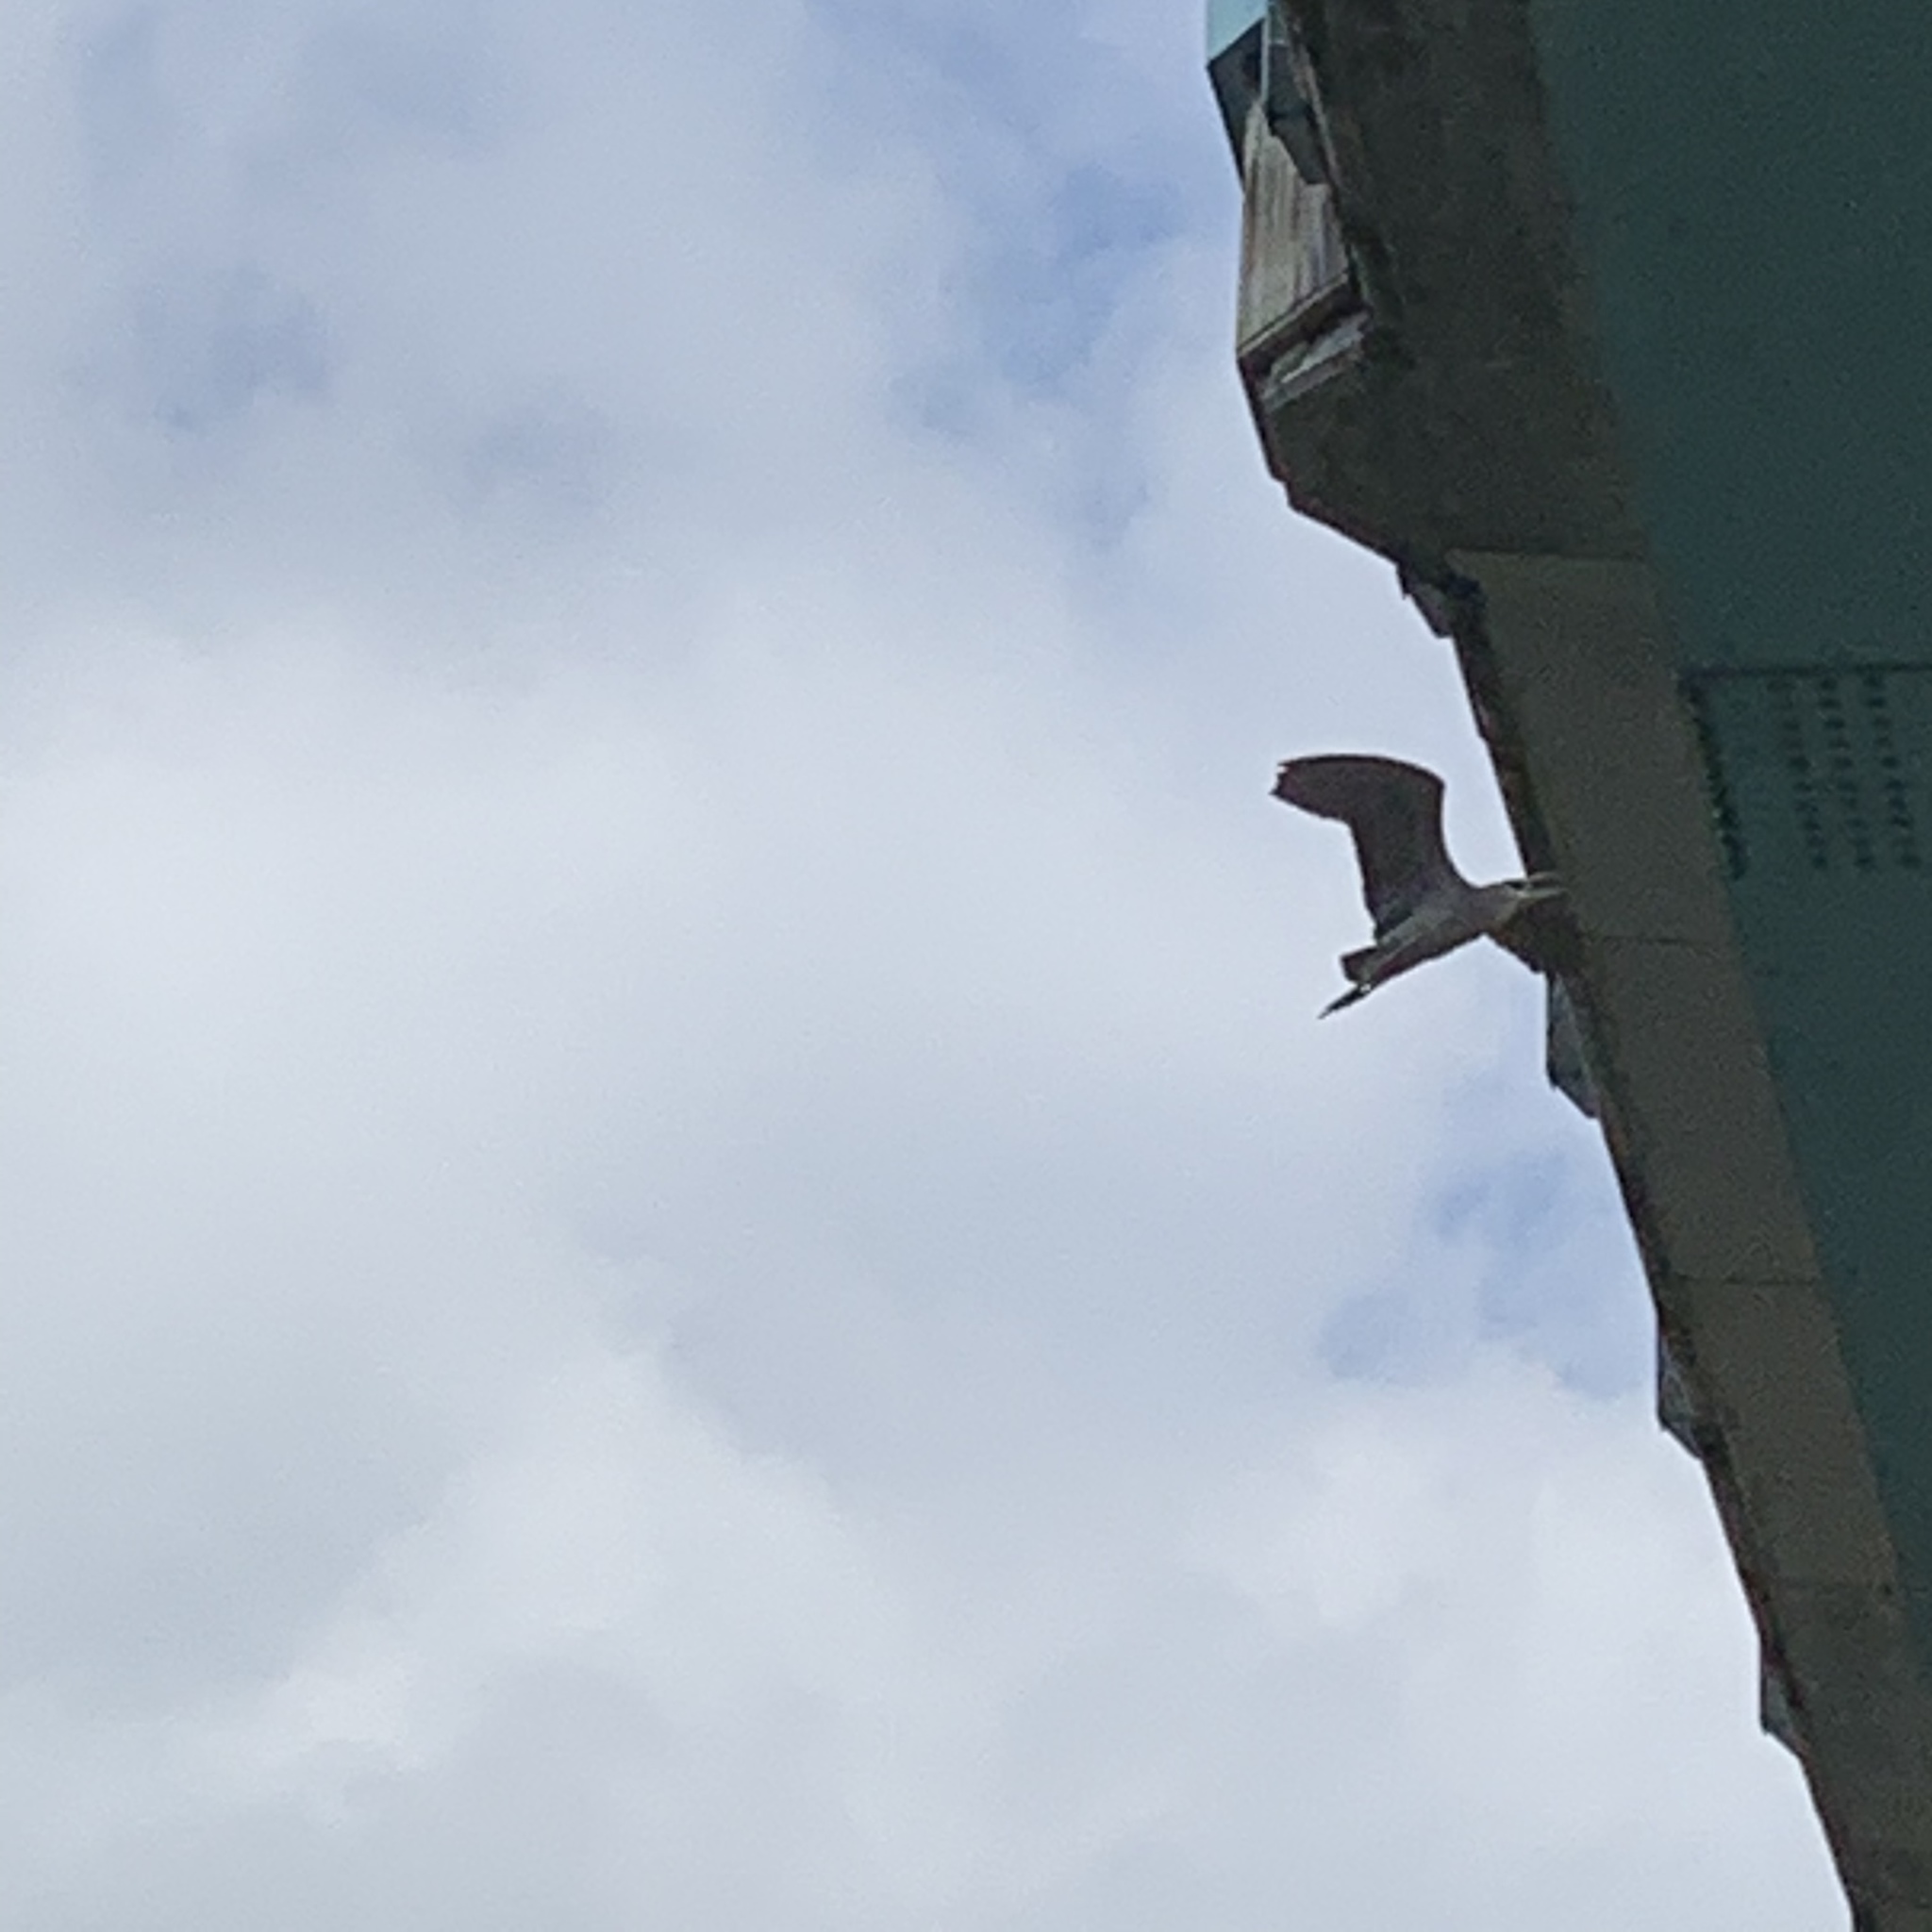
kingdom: Animalia
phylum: Chordata
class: Aves
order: Pelecaniformes
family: Ardeidae
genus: Nycticorax
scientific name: Nycticorax nycticorax
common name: Black-crowned night heron
